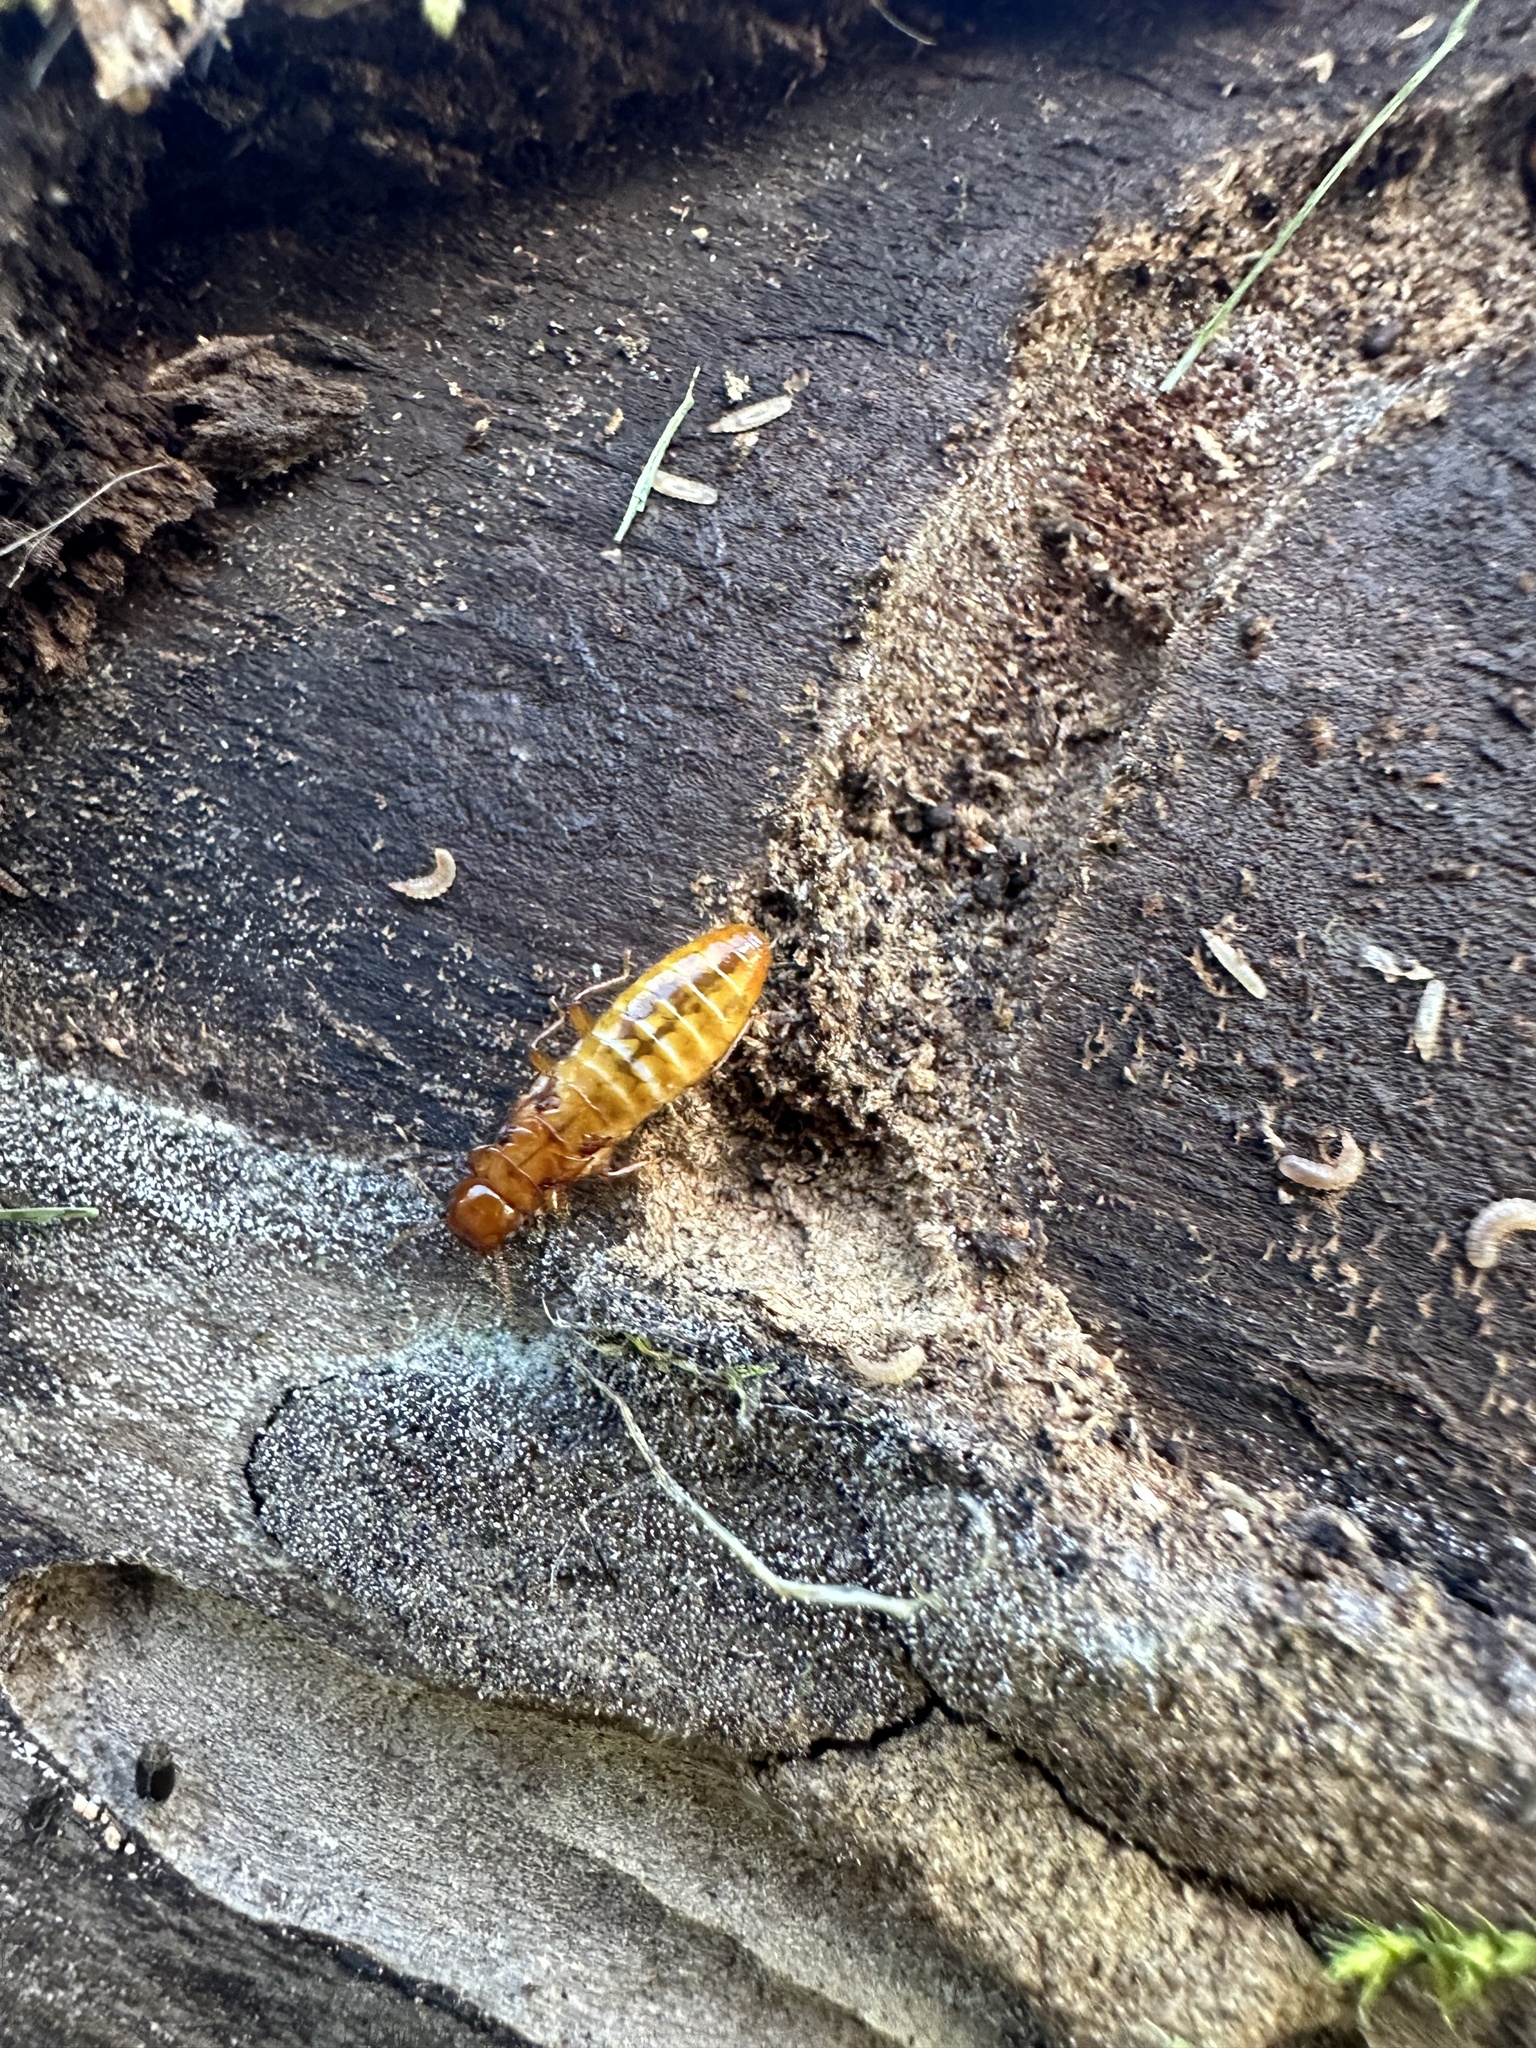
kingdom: Animalia
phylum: Arthropoda
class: Insecta
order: Blattodea
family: Stolotermitidae
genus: Porotermes
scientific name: Porotermes quadricollis
